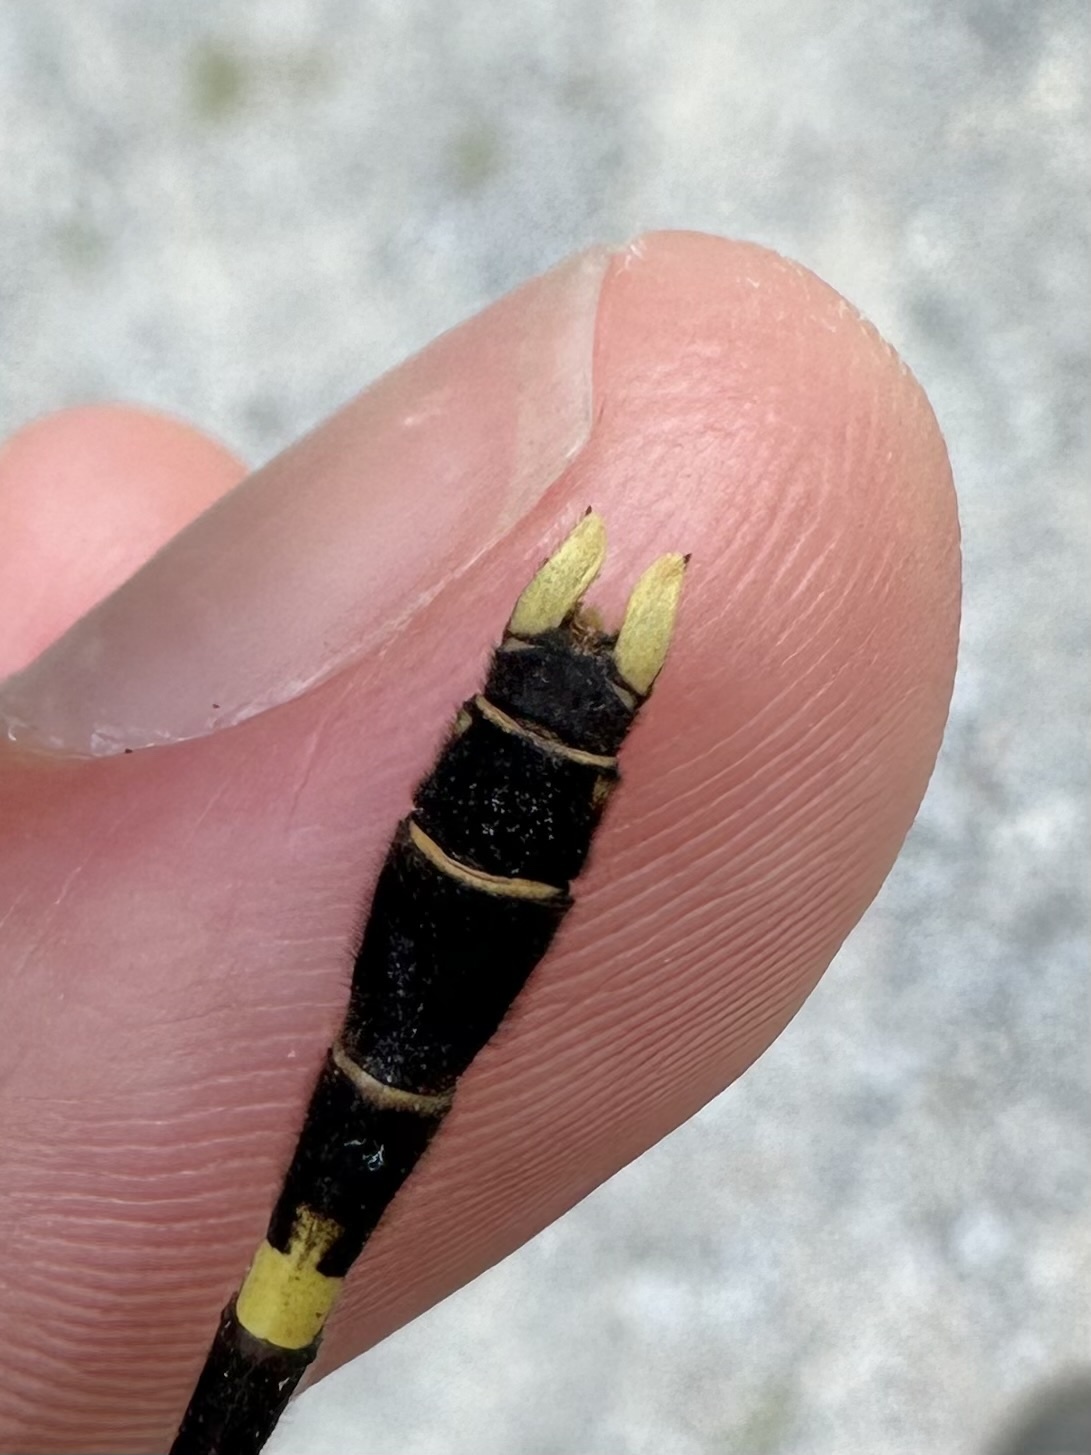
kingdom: Animalia
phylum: Arthropoda
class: Insecta
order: Odonata
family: Gomphidae
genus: Progomphus
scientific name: Progomphus obscurus
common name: Common sanddragon
